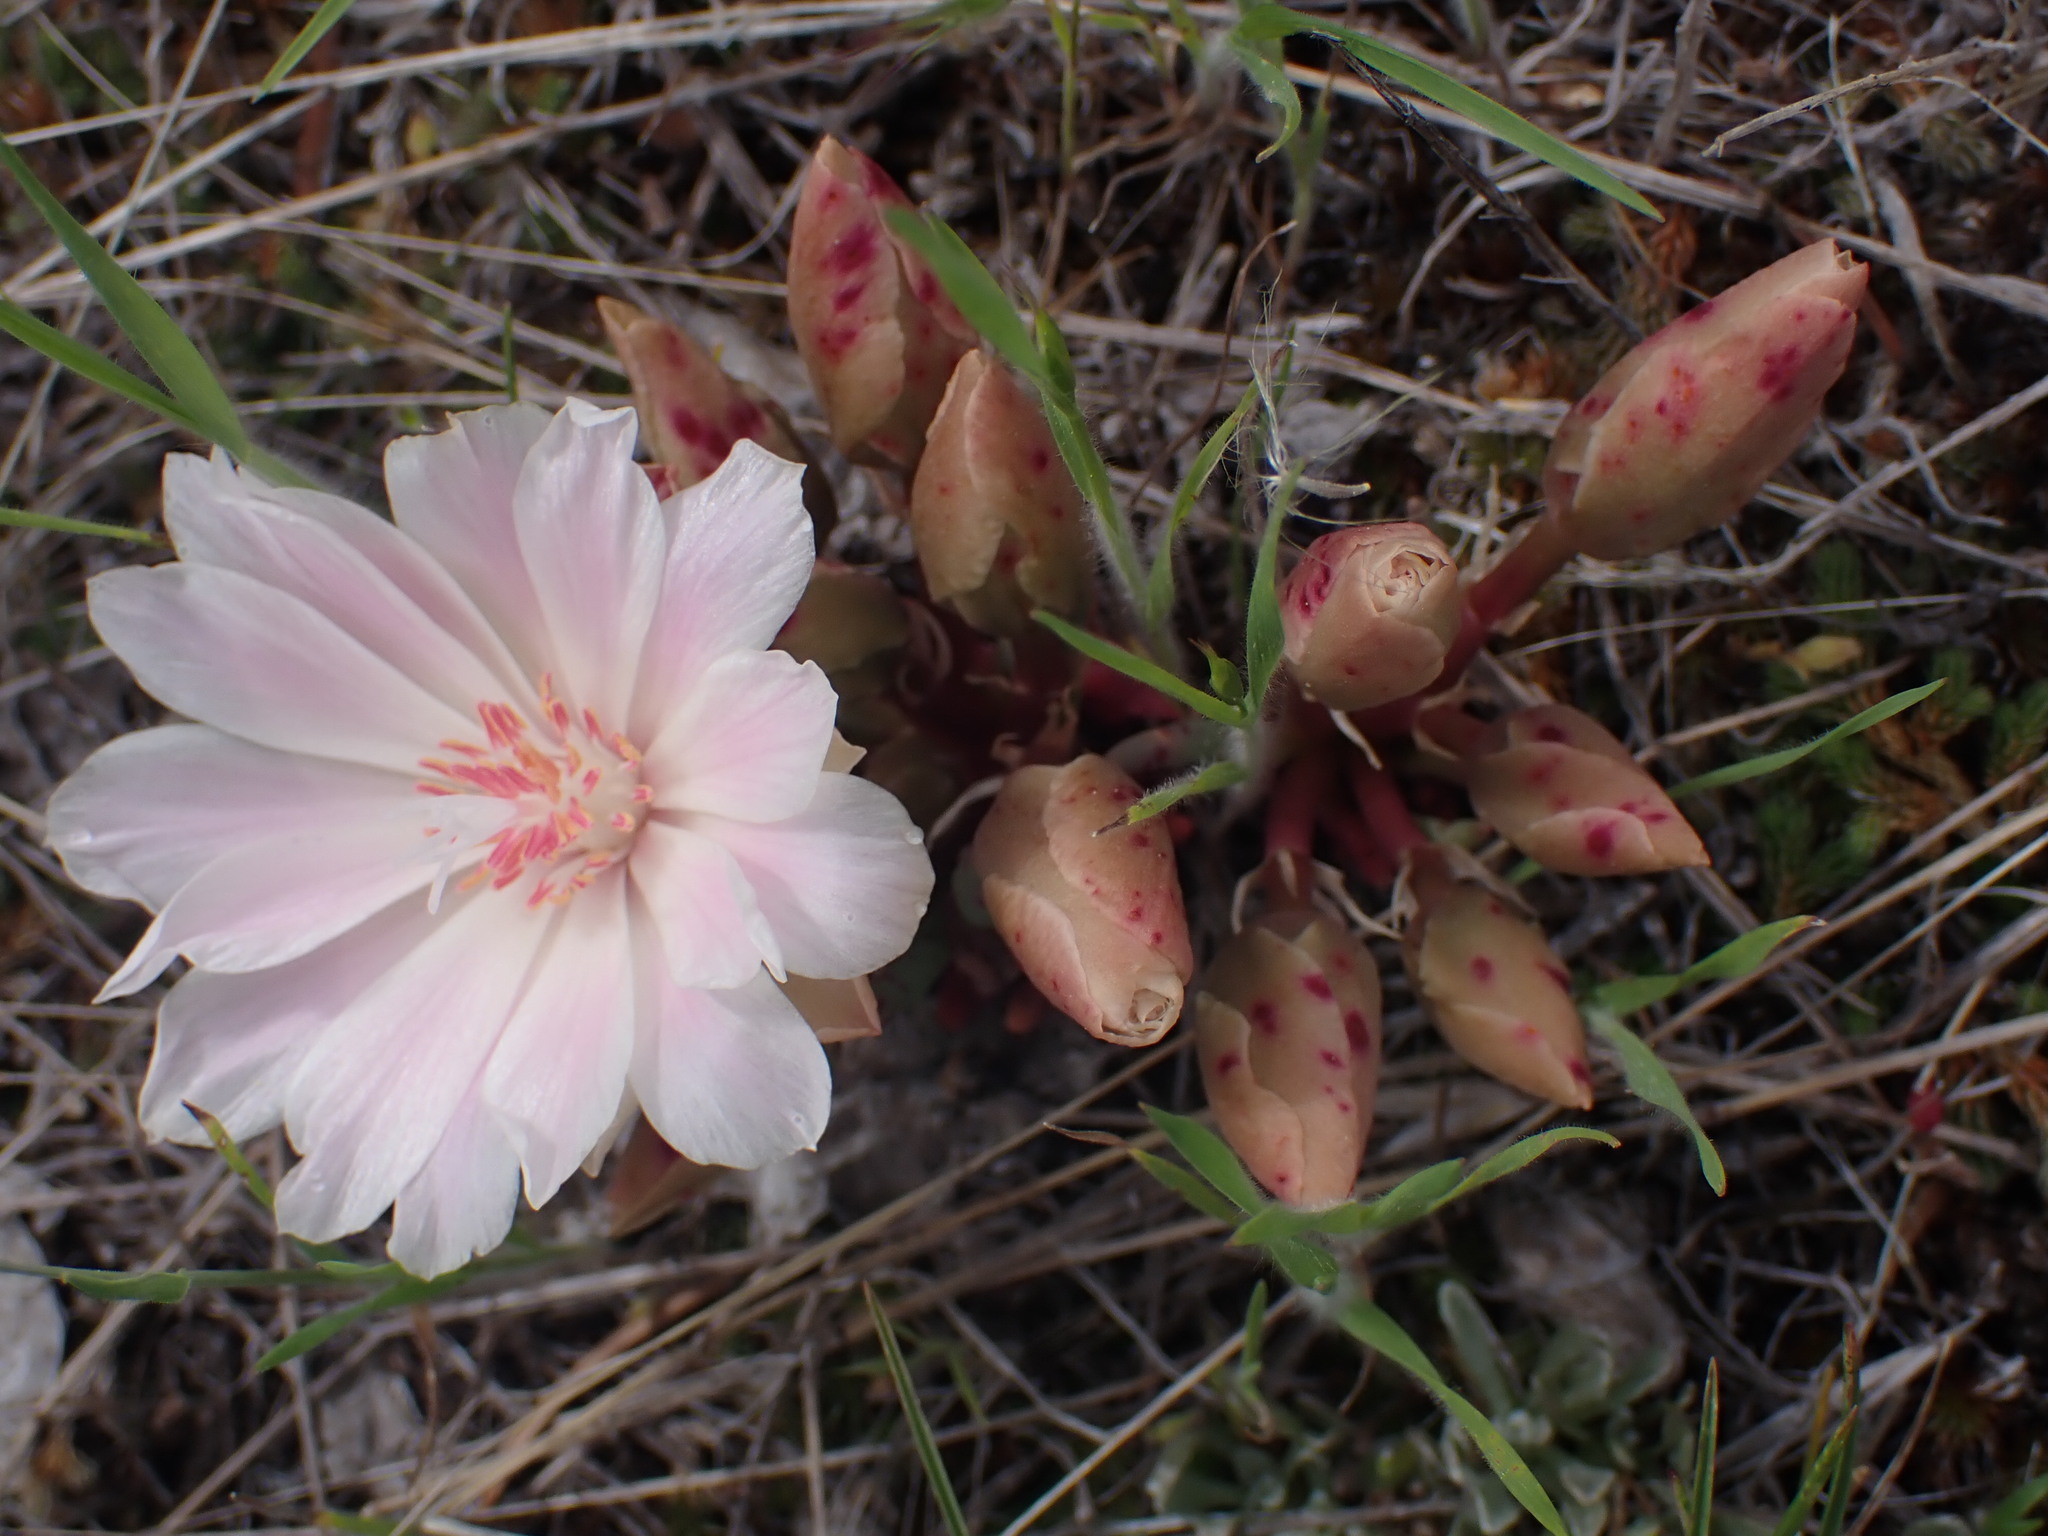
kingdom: Plantae
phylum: Tracheophyta
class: Magnoliopsida
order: Caryophyllales
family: Montiaceae
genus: Lewisia
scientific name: Lewisia rediviva
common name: Bitter-root
